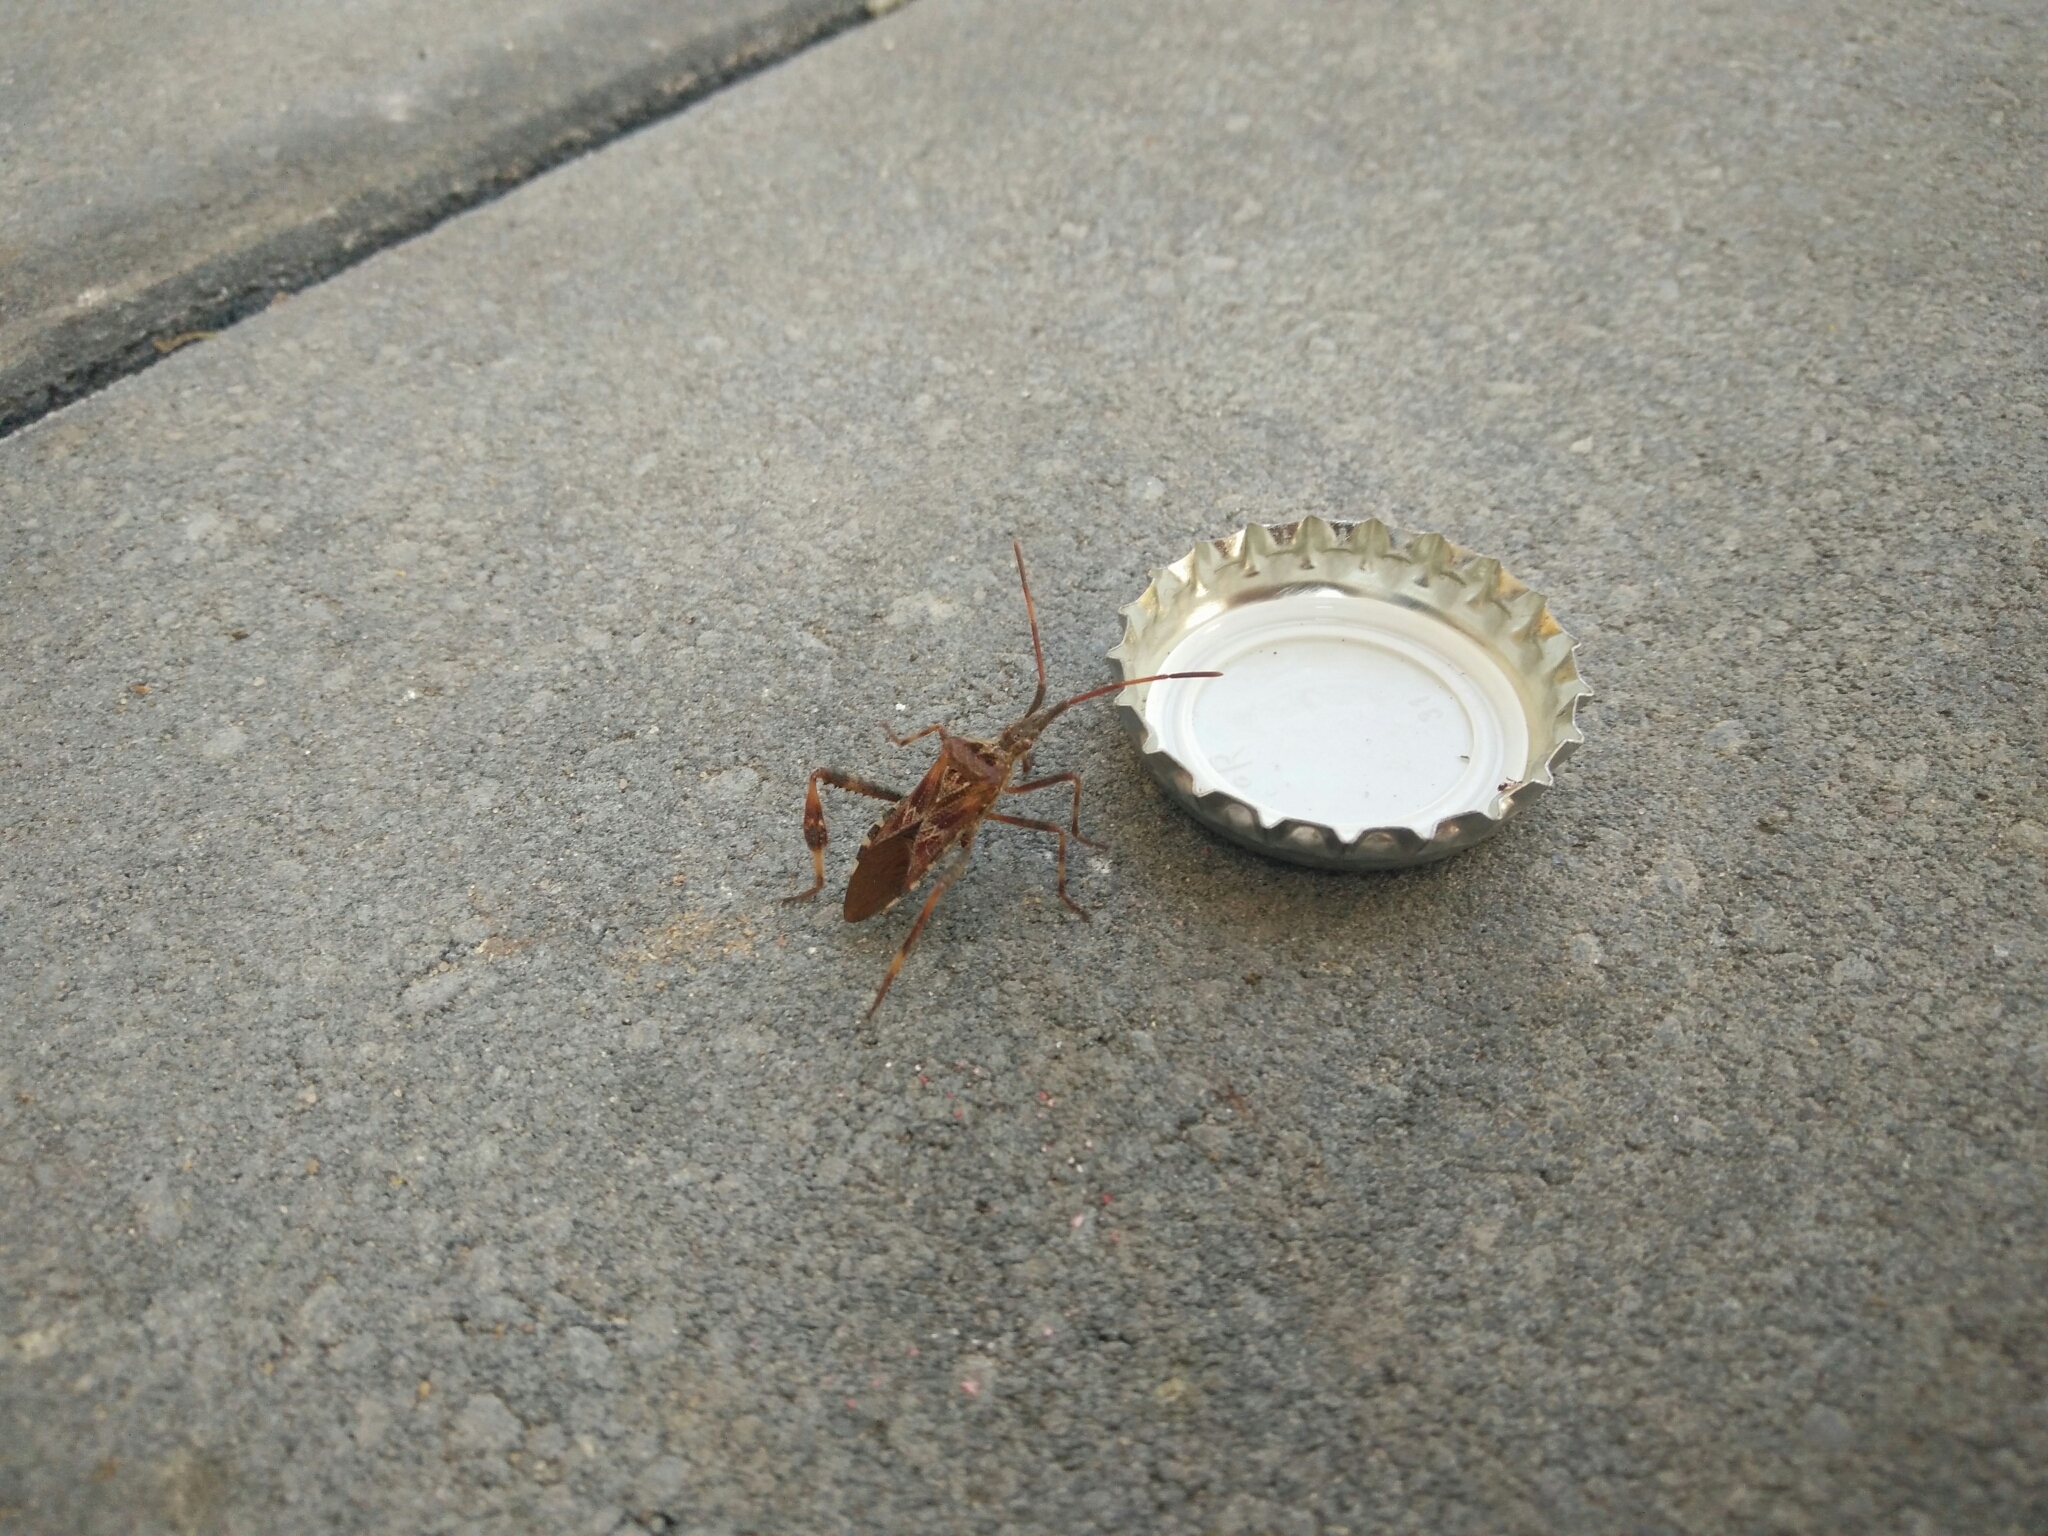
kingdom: Animalia
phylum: Arthropoda
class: Insecta
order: Hemiptera
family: Coreidae
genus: Leptoglossus
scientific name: Leptoglossus occidentalis
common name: Western conifer-seed bug
